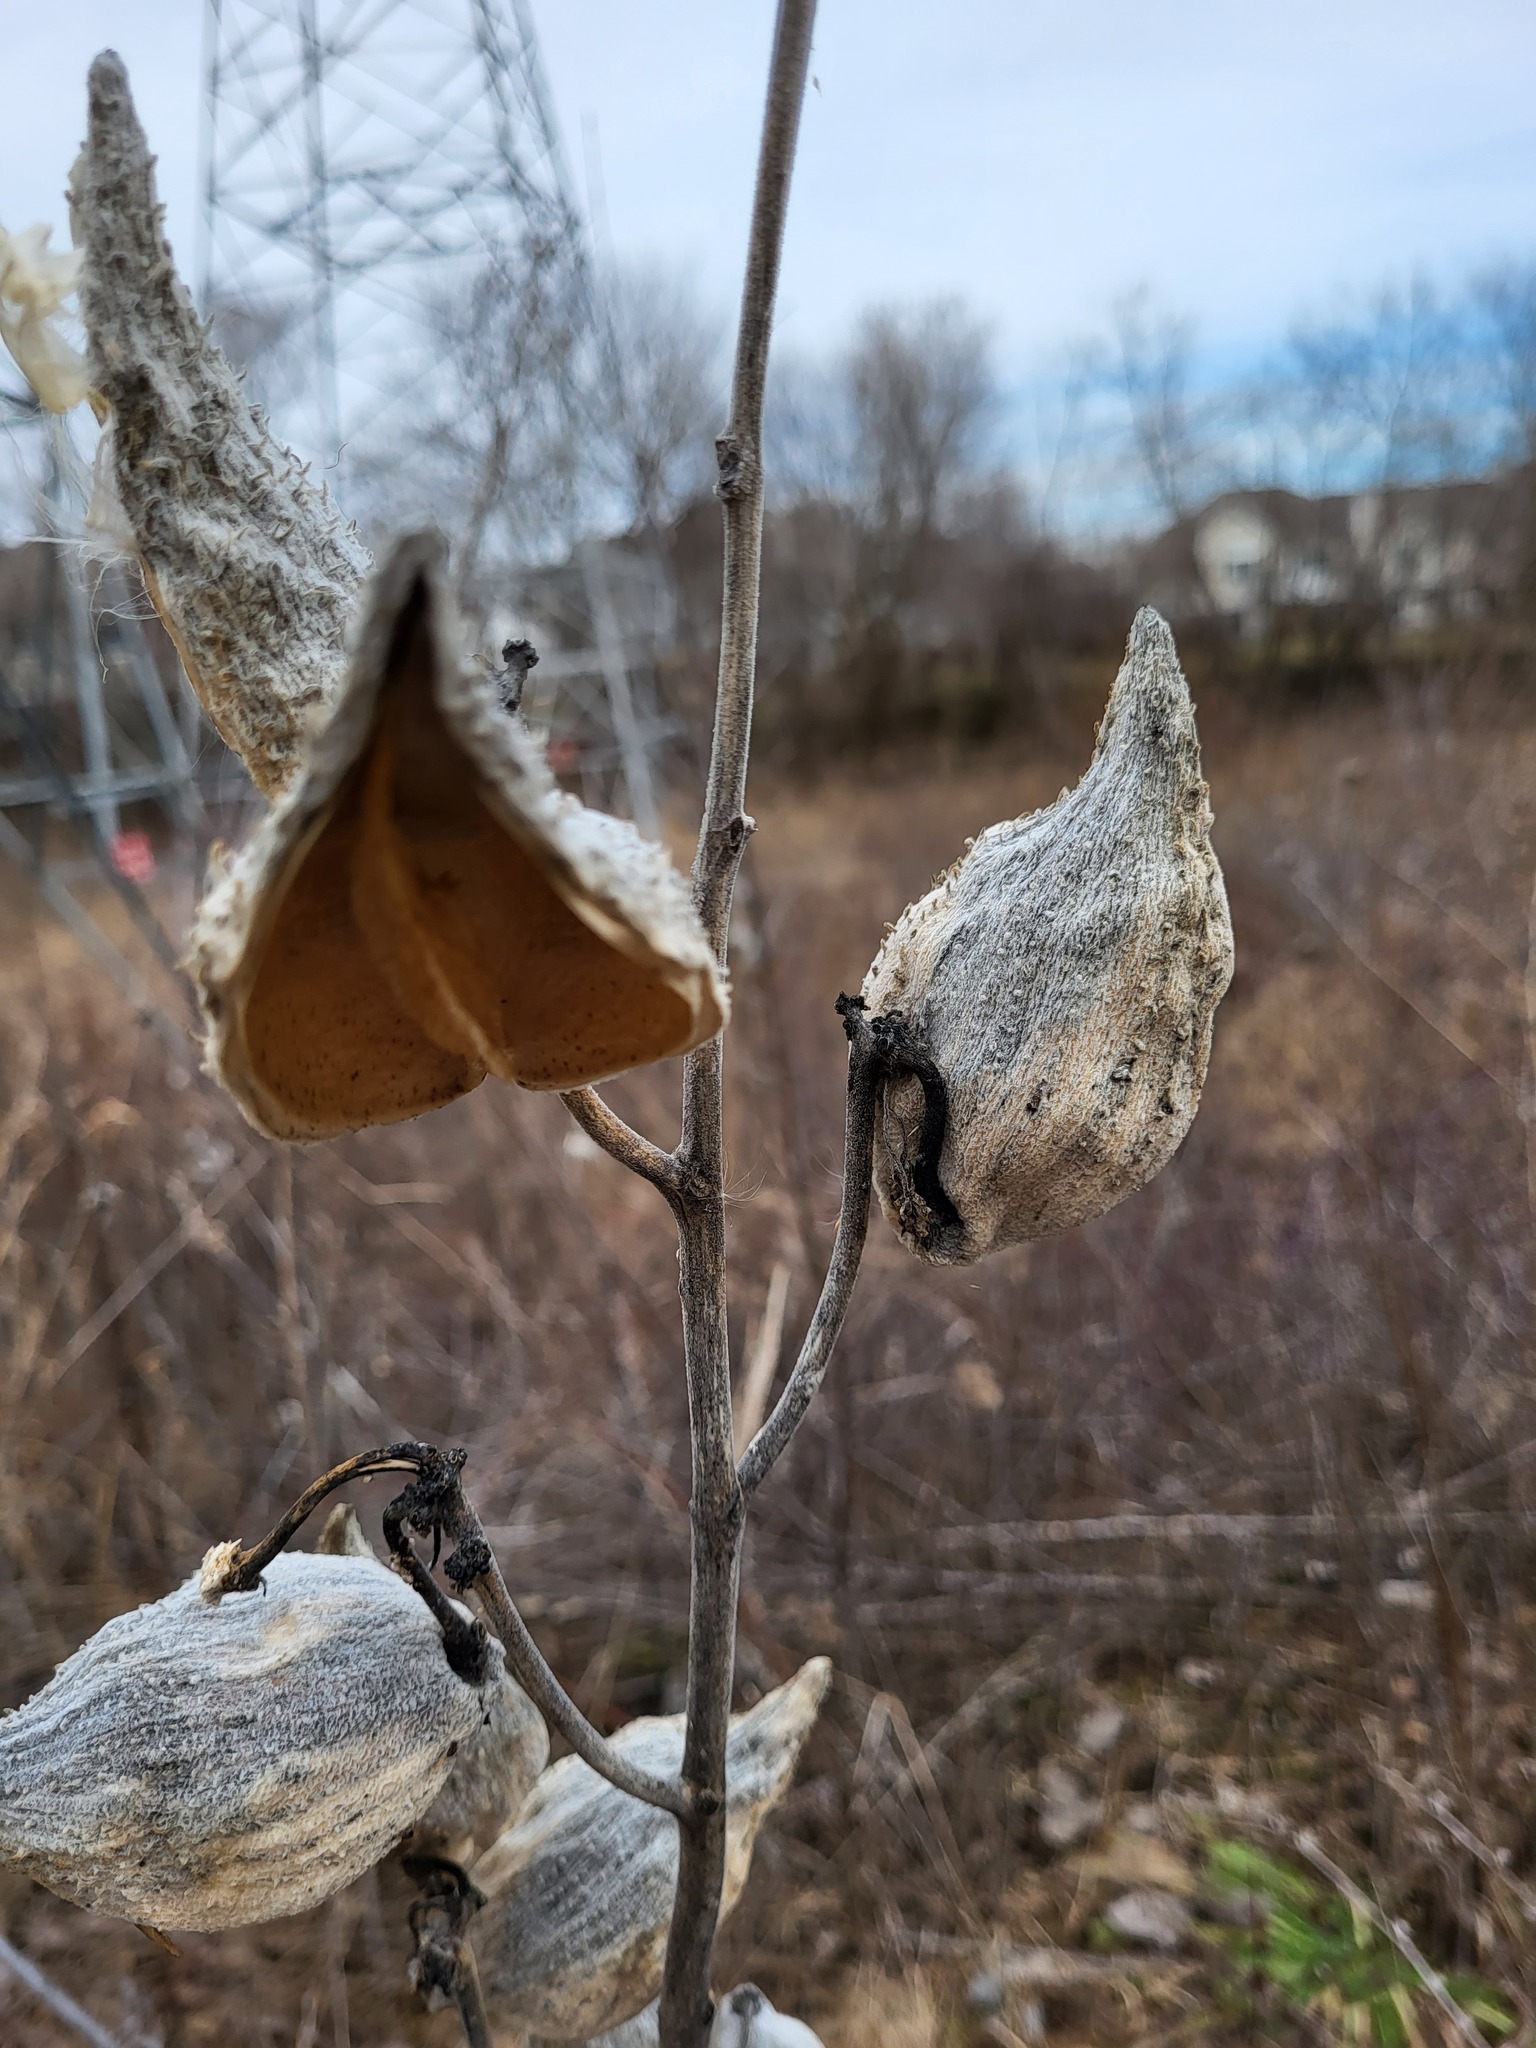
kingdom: Plantae
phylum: Tracheophyta
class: Magnoliopsida
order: Gentianales
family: Apocynaceae
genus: Asclepias
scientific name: Asclepias syriaca
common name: Common milkweed
